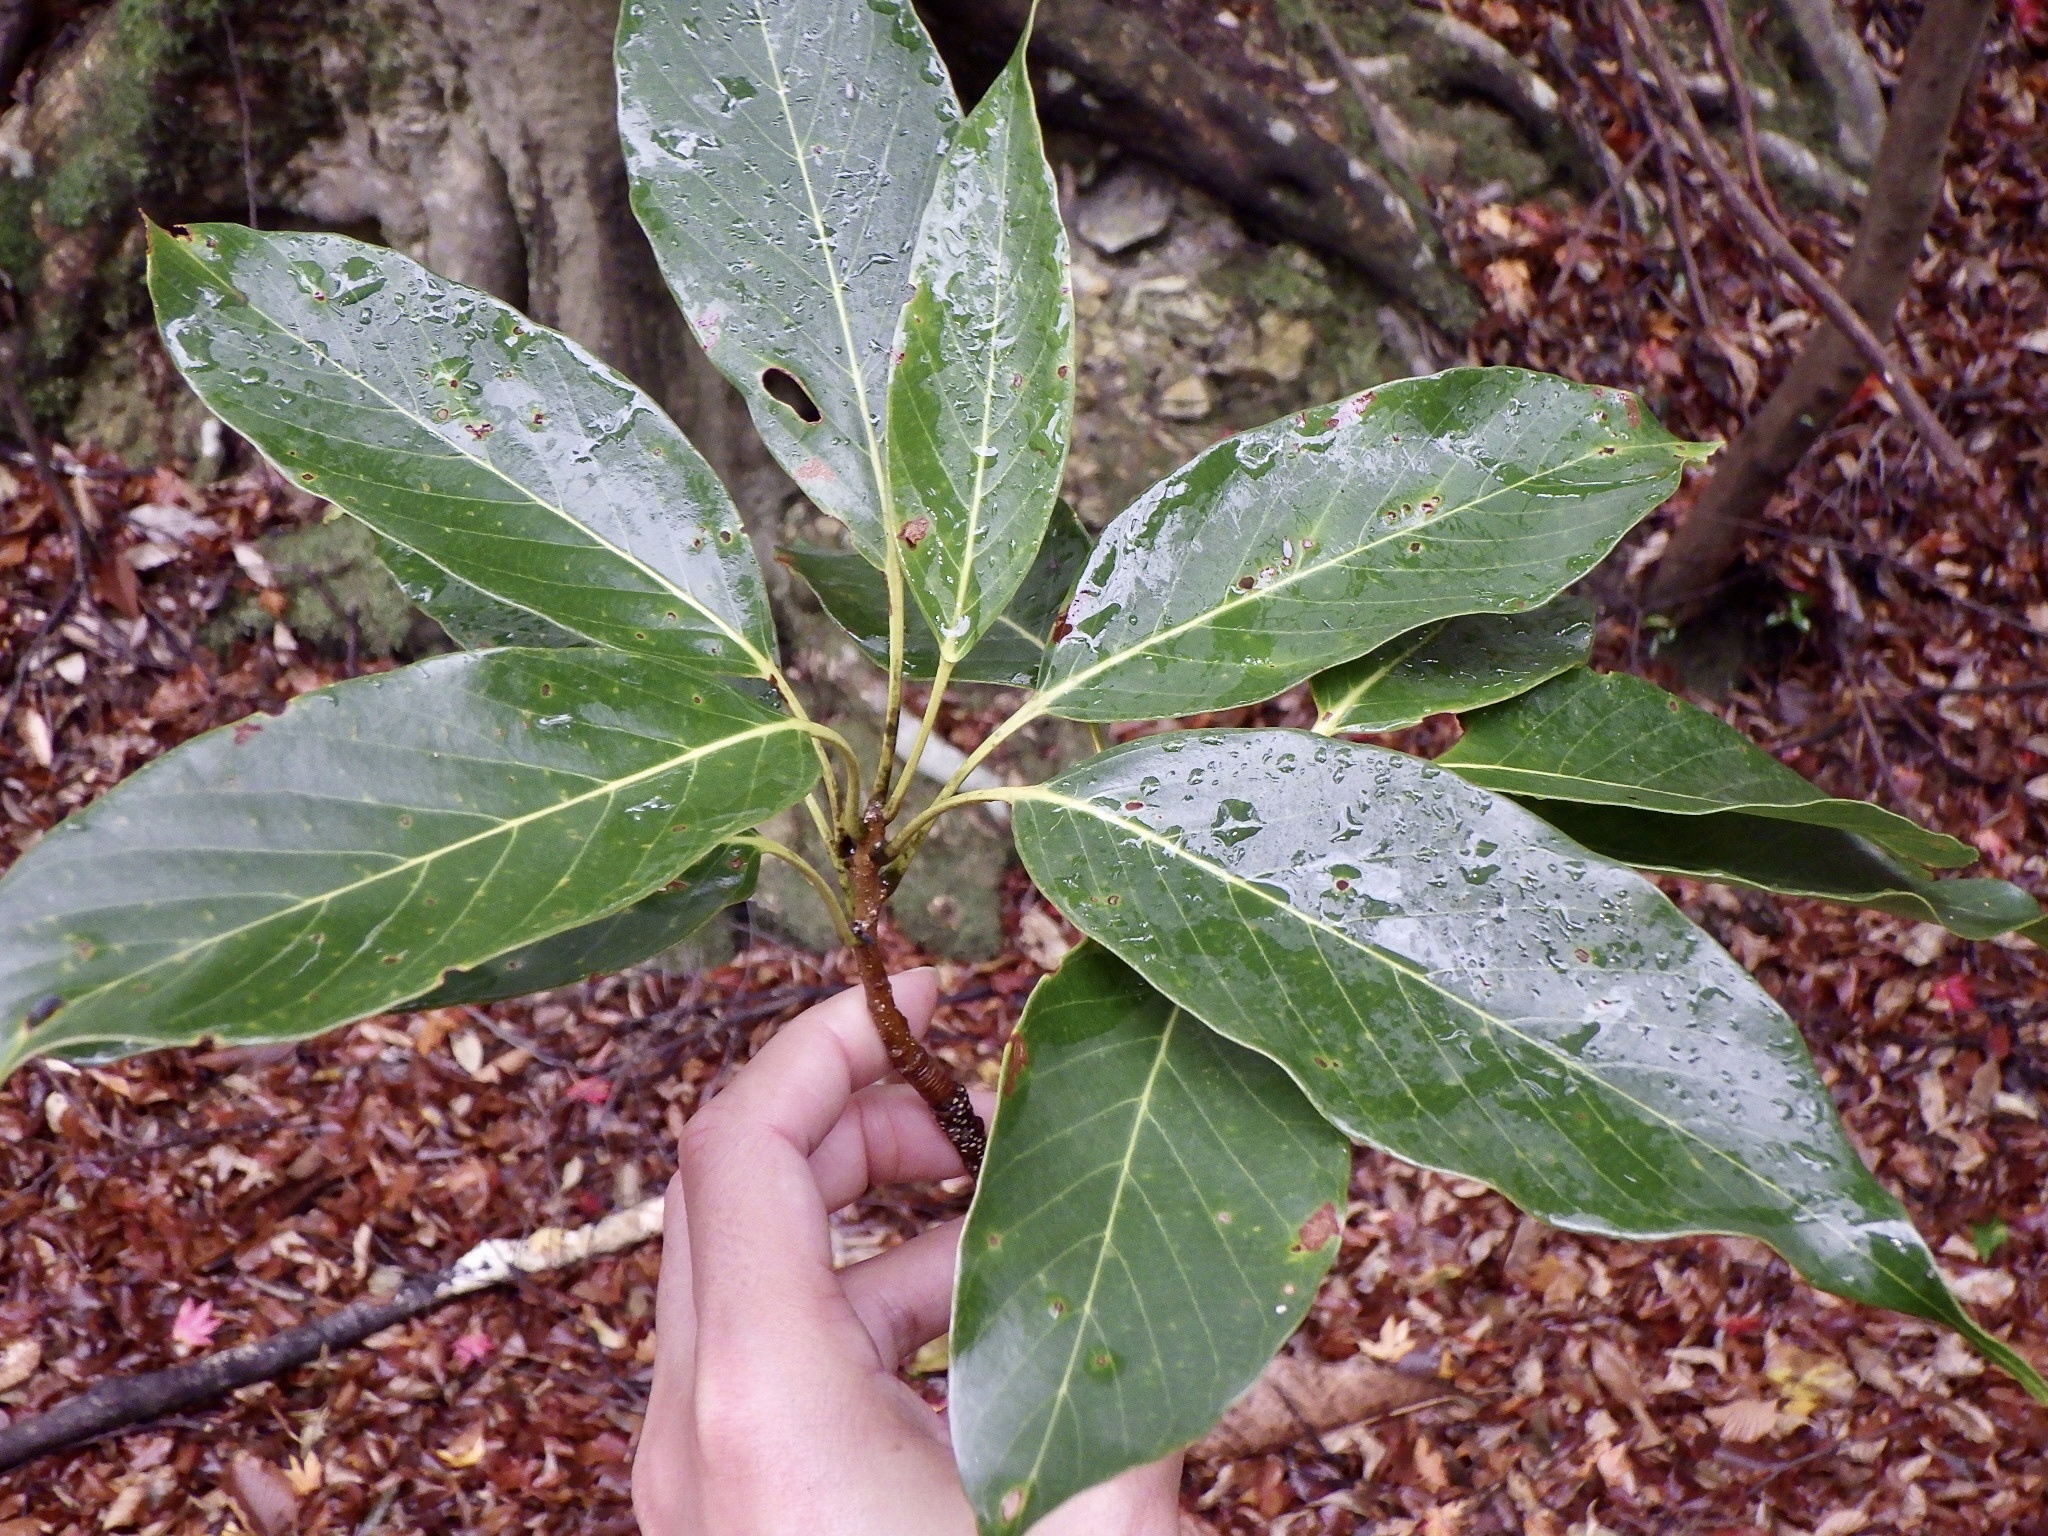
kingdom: Plantae
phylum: Tracheophyta
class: Magnoliopsida
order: Fagales
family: Fagaceae
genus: Quercus
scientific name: Quercus acuta
